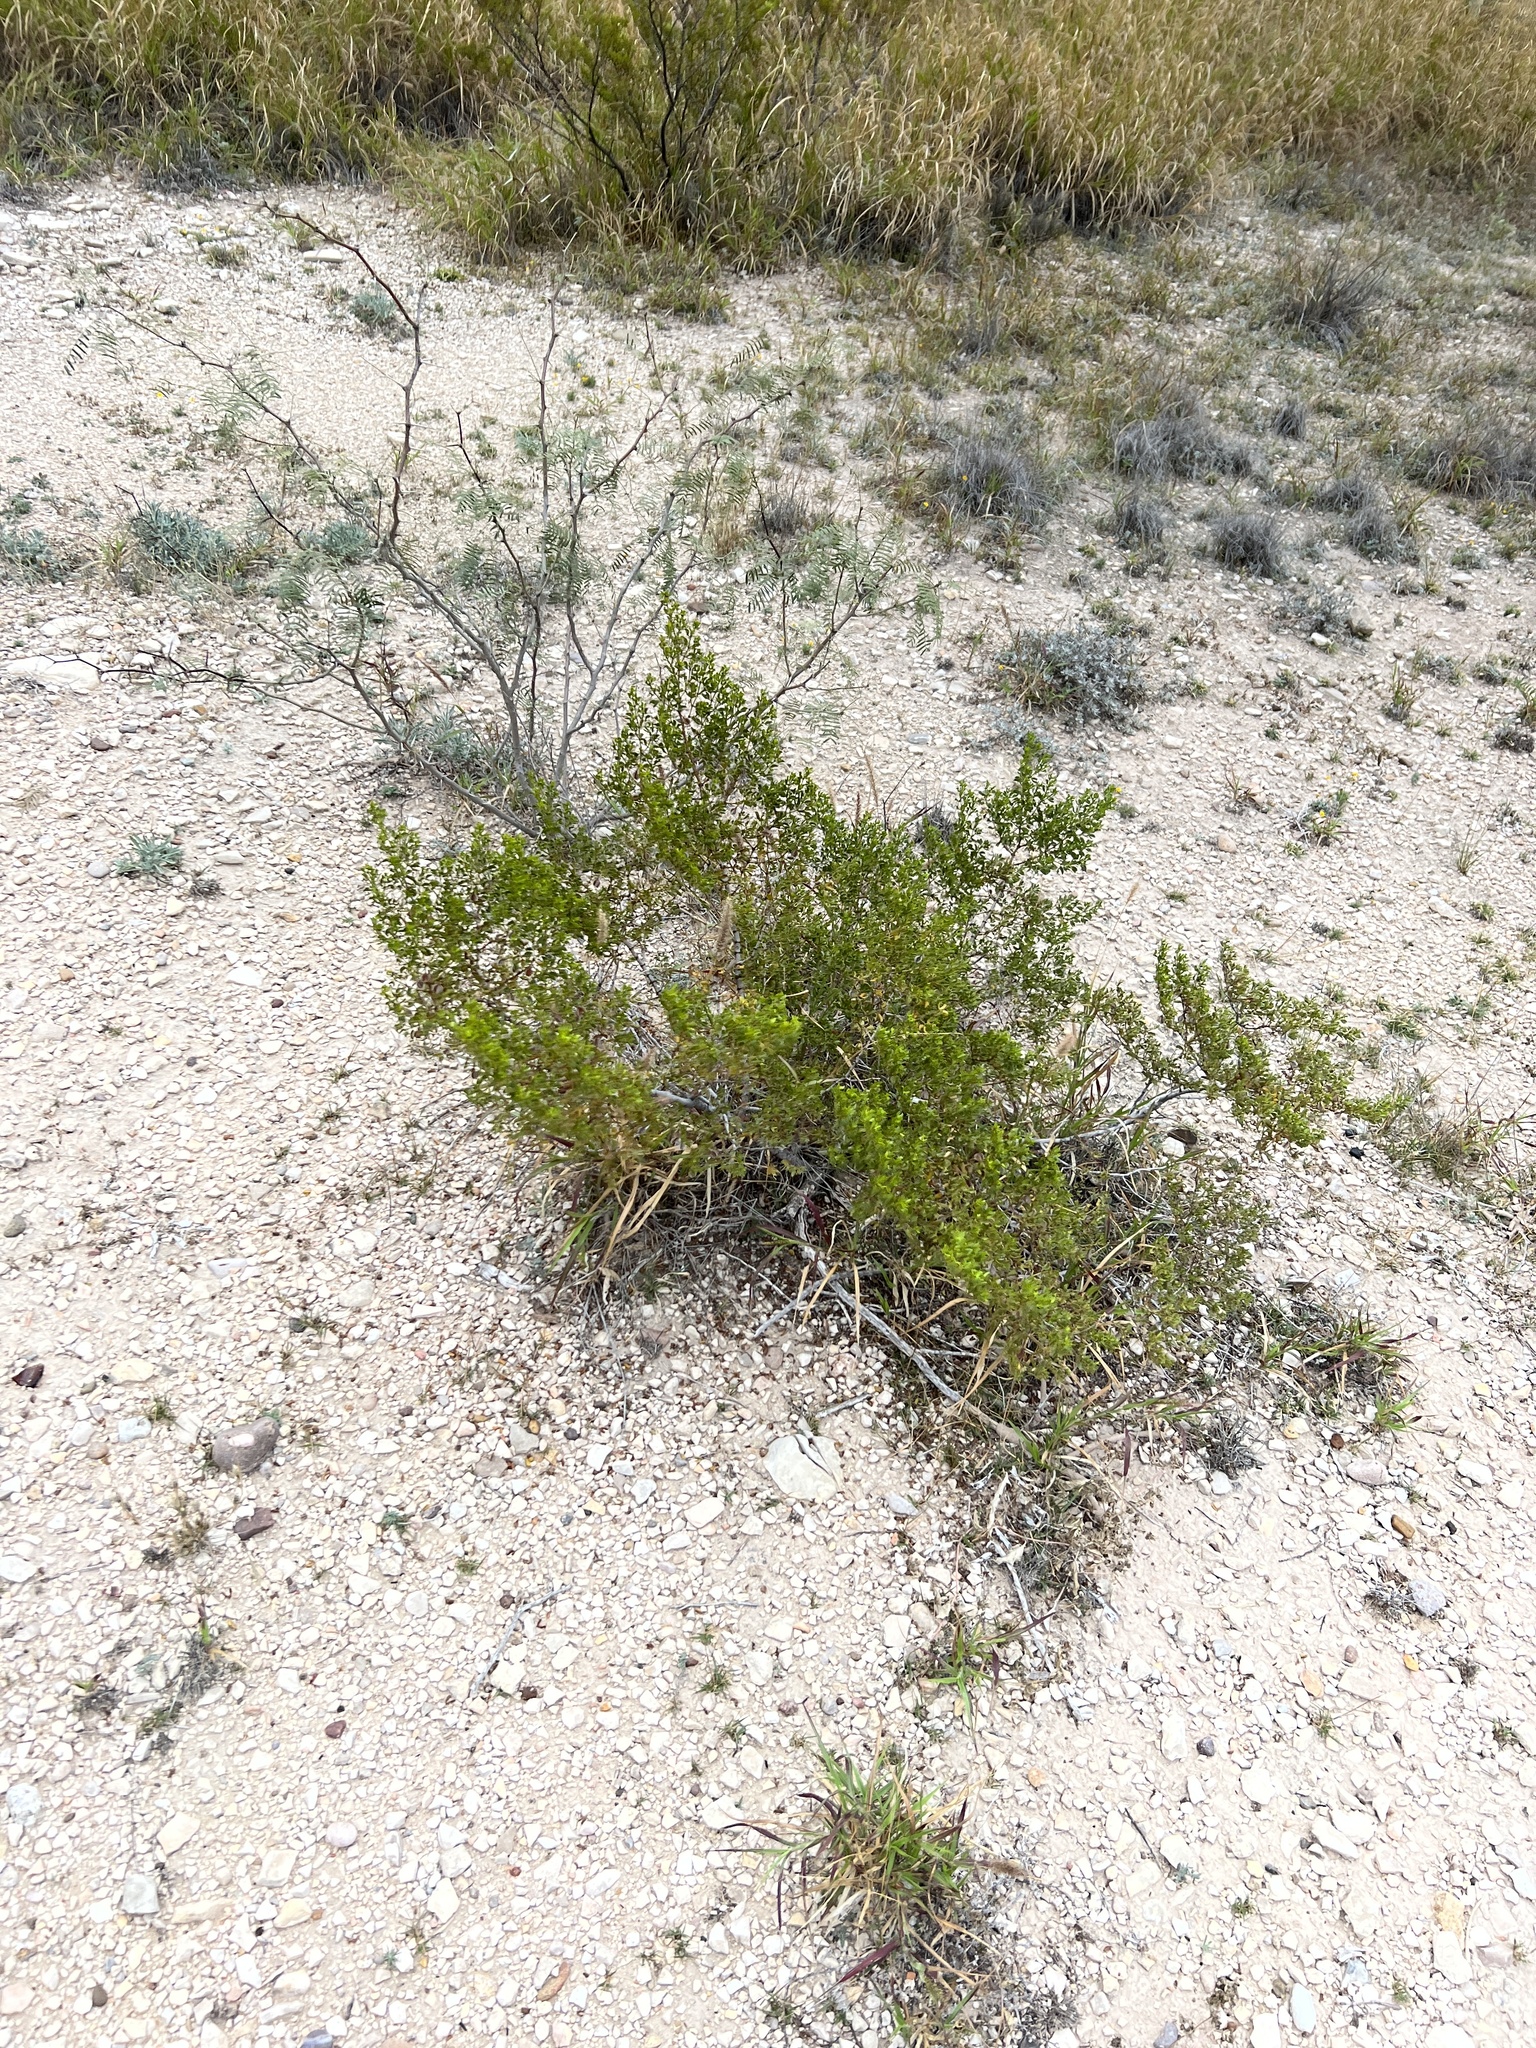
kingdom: Plantae
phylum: Tracheophyta
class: Magnoliopsida
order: Zygophyllales
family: Zygophyllaceae
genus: Larrea
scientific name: Larrea tridentata
